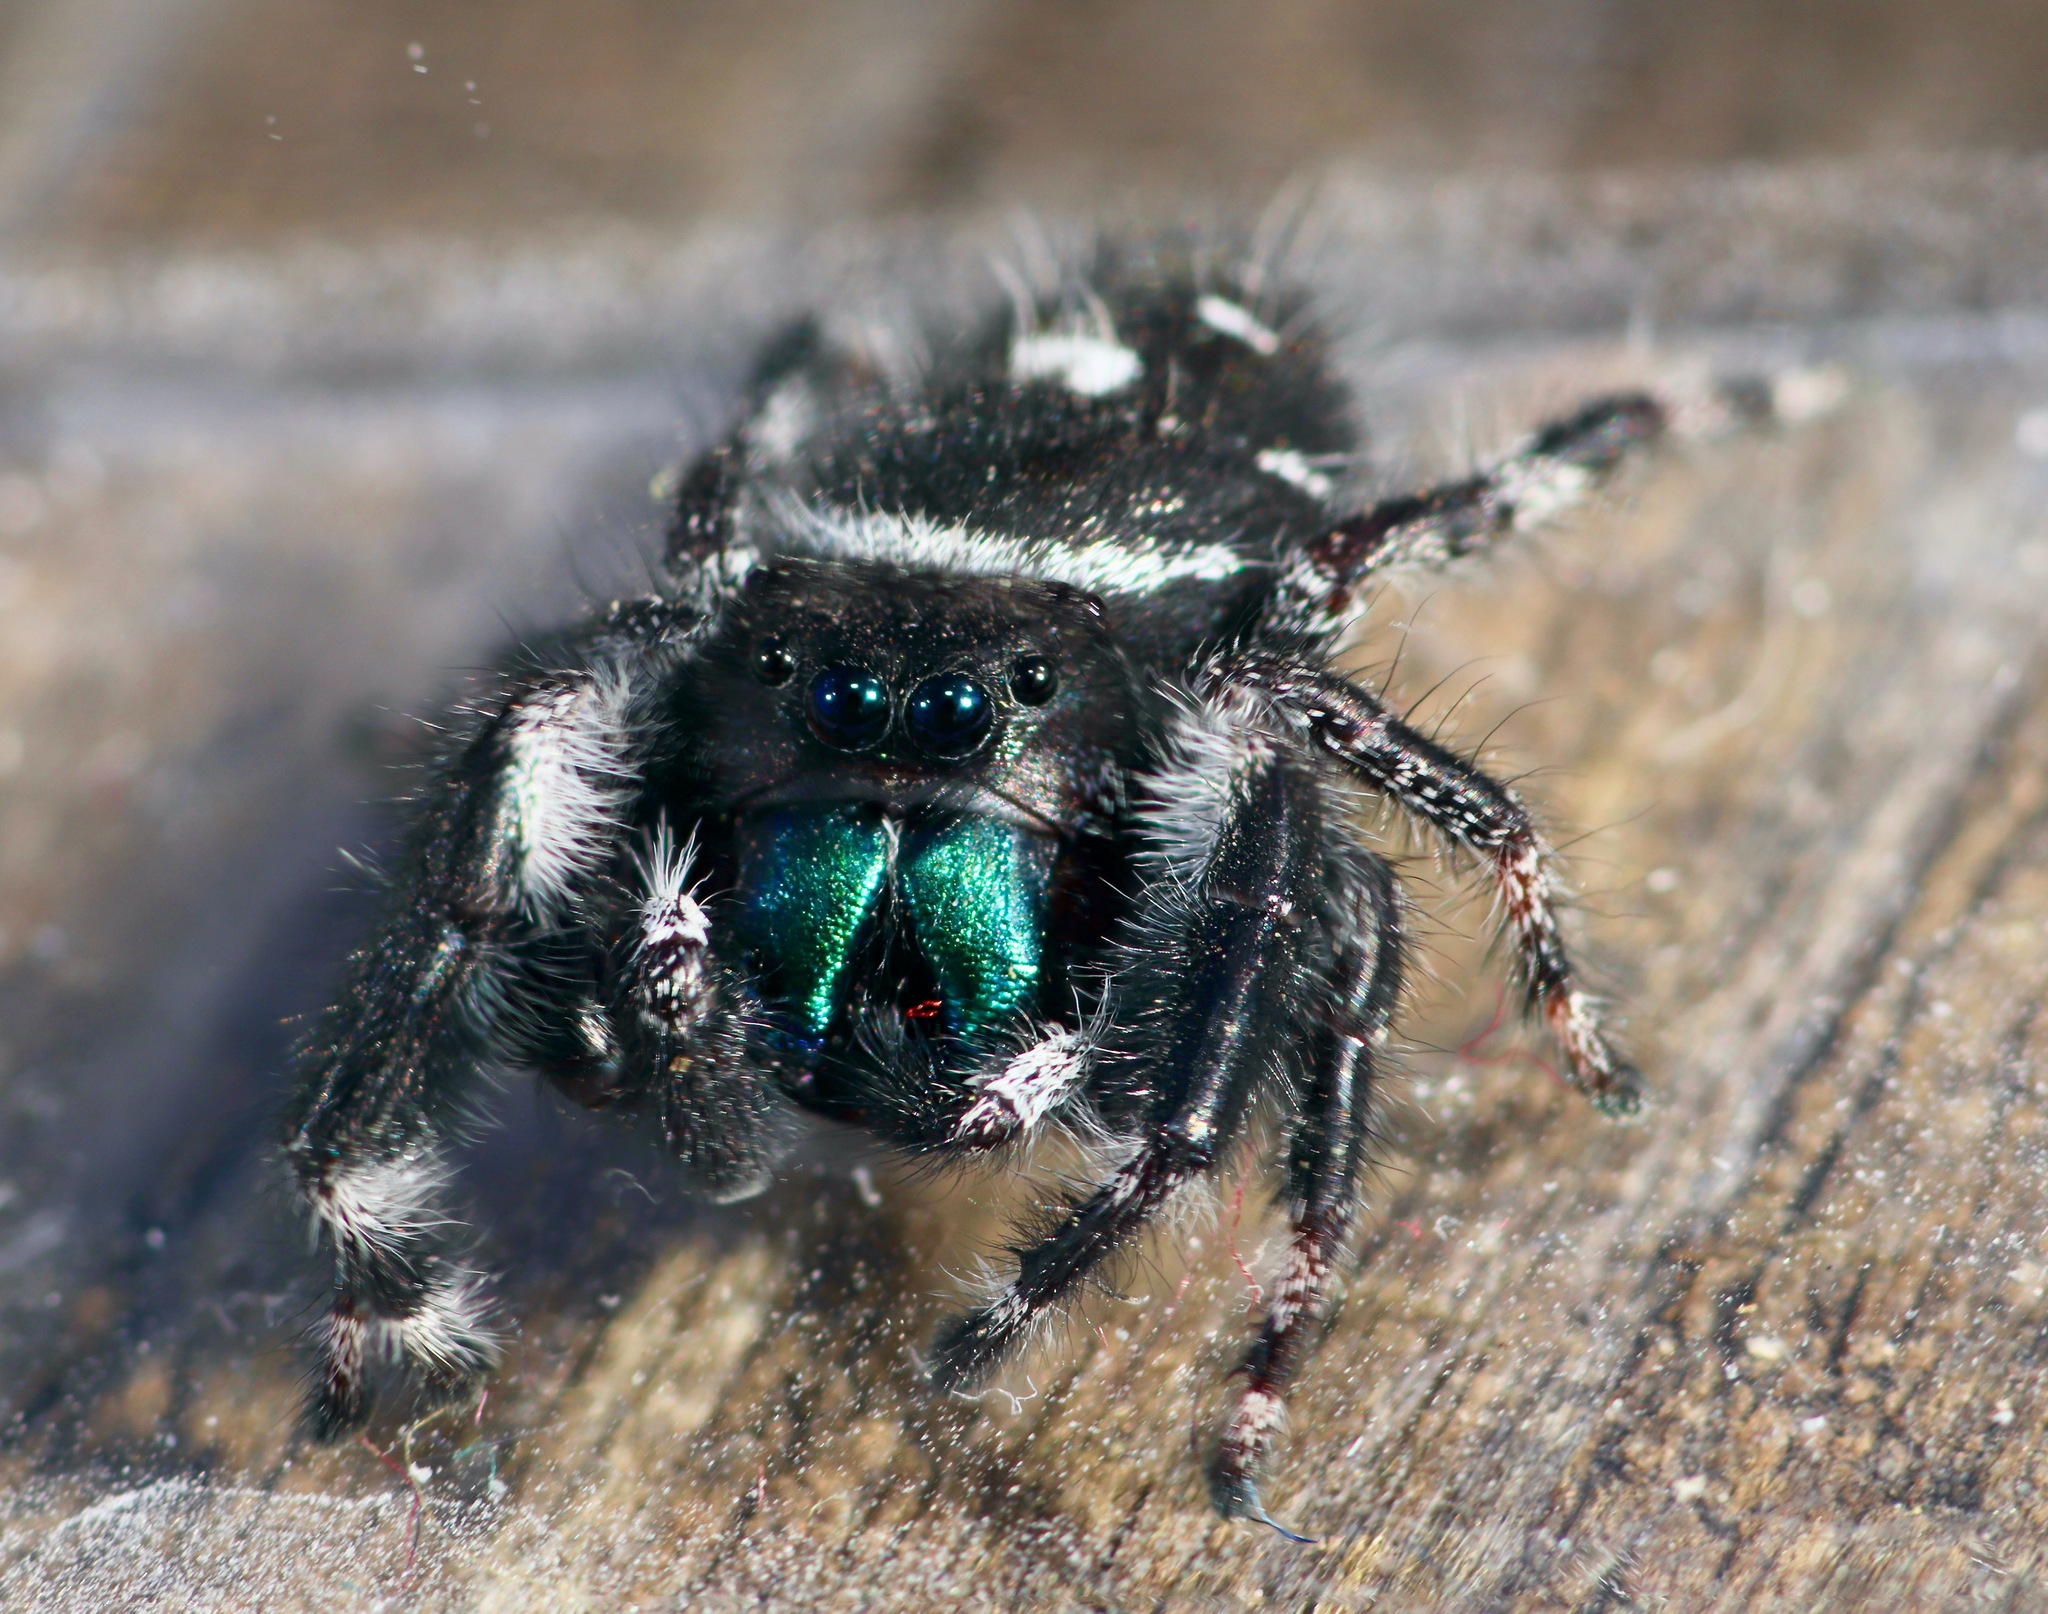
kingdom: Animalia
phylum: Arthropoda
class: Arachnida
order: Araneae
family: Salticidae
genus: Phidippus
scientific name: Phidippus audax
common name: Bold jumper
